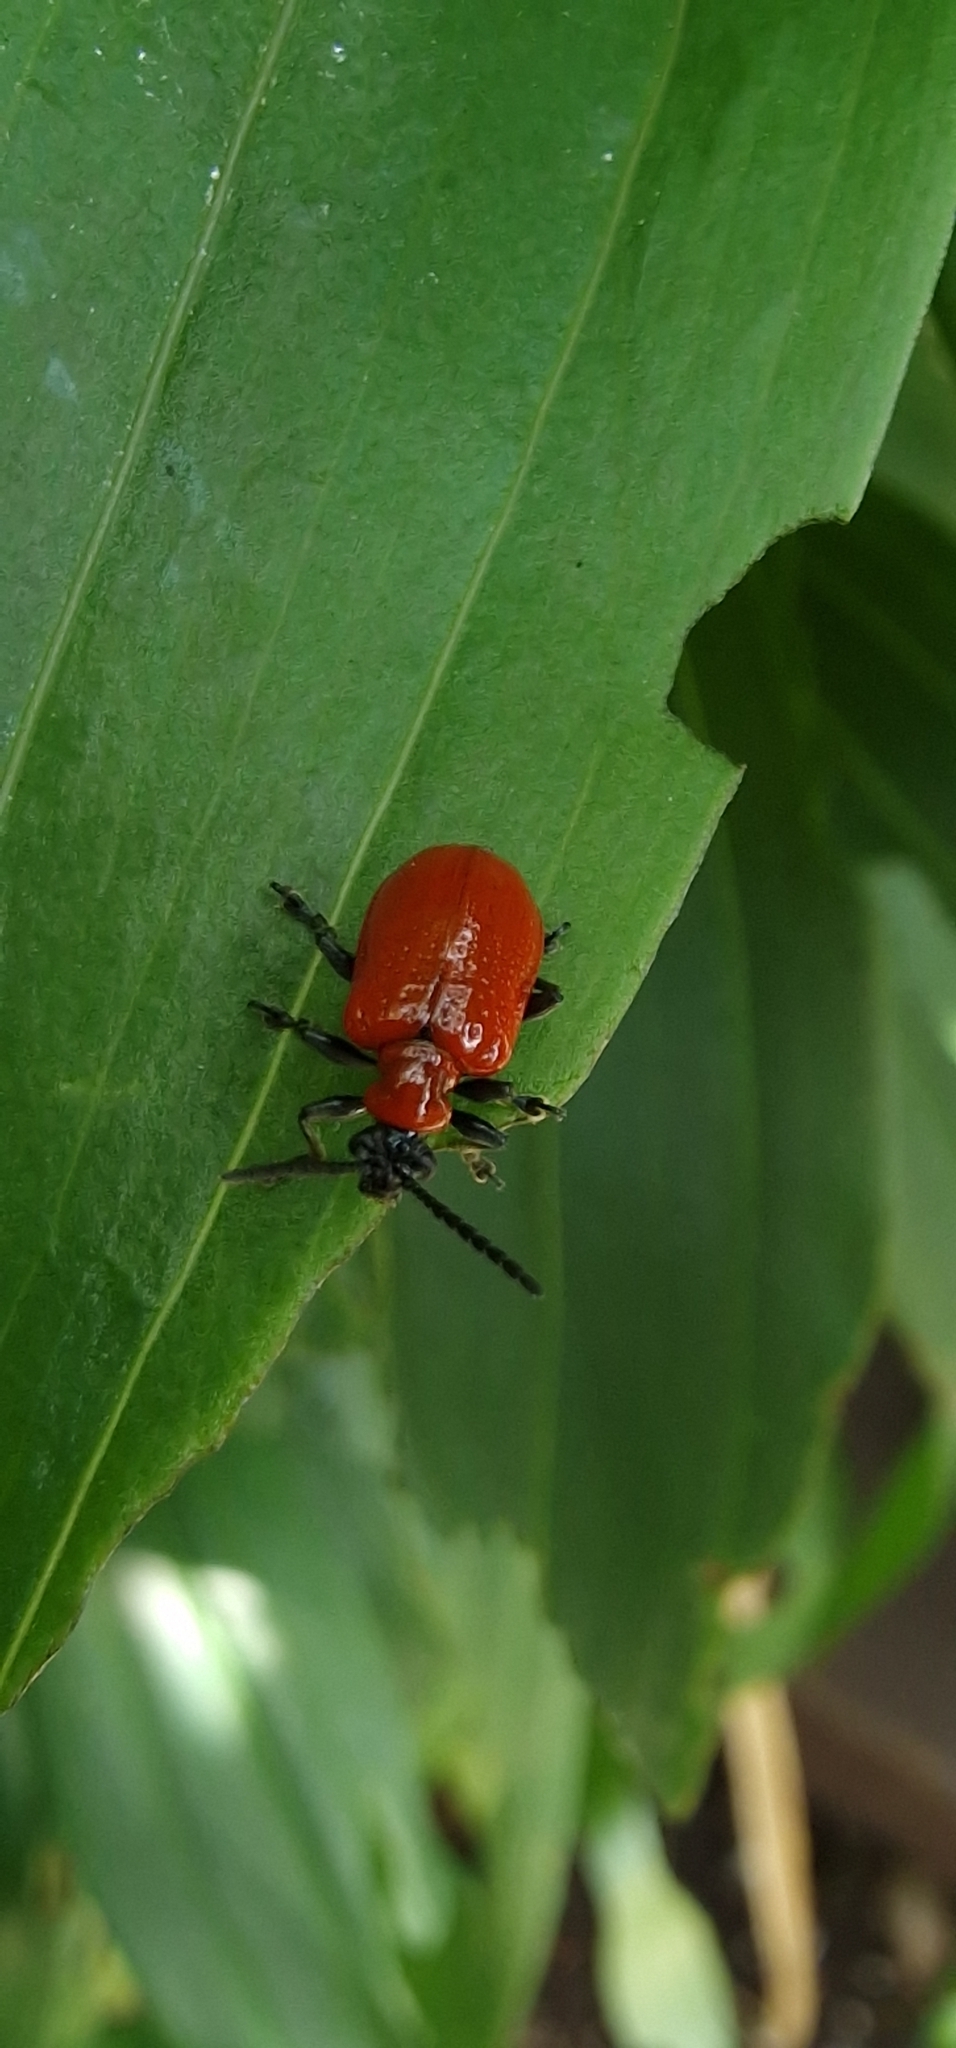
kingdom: Animalia
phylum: Arthropoda
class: Insecta
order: Coleoptera
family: Chrysomelidae
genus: Lilioceris
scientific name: Lilioceris lilii
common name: Lily beetle
